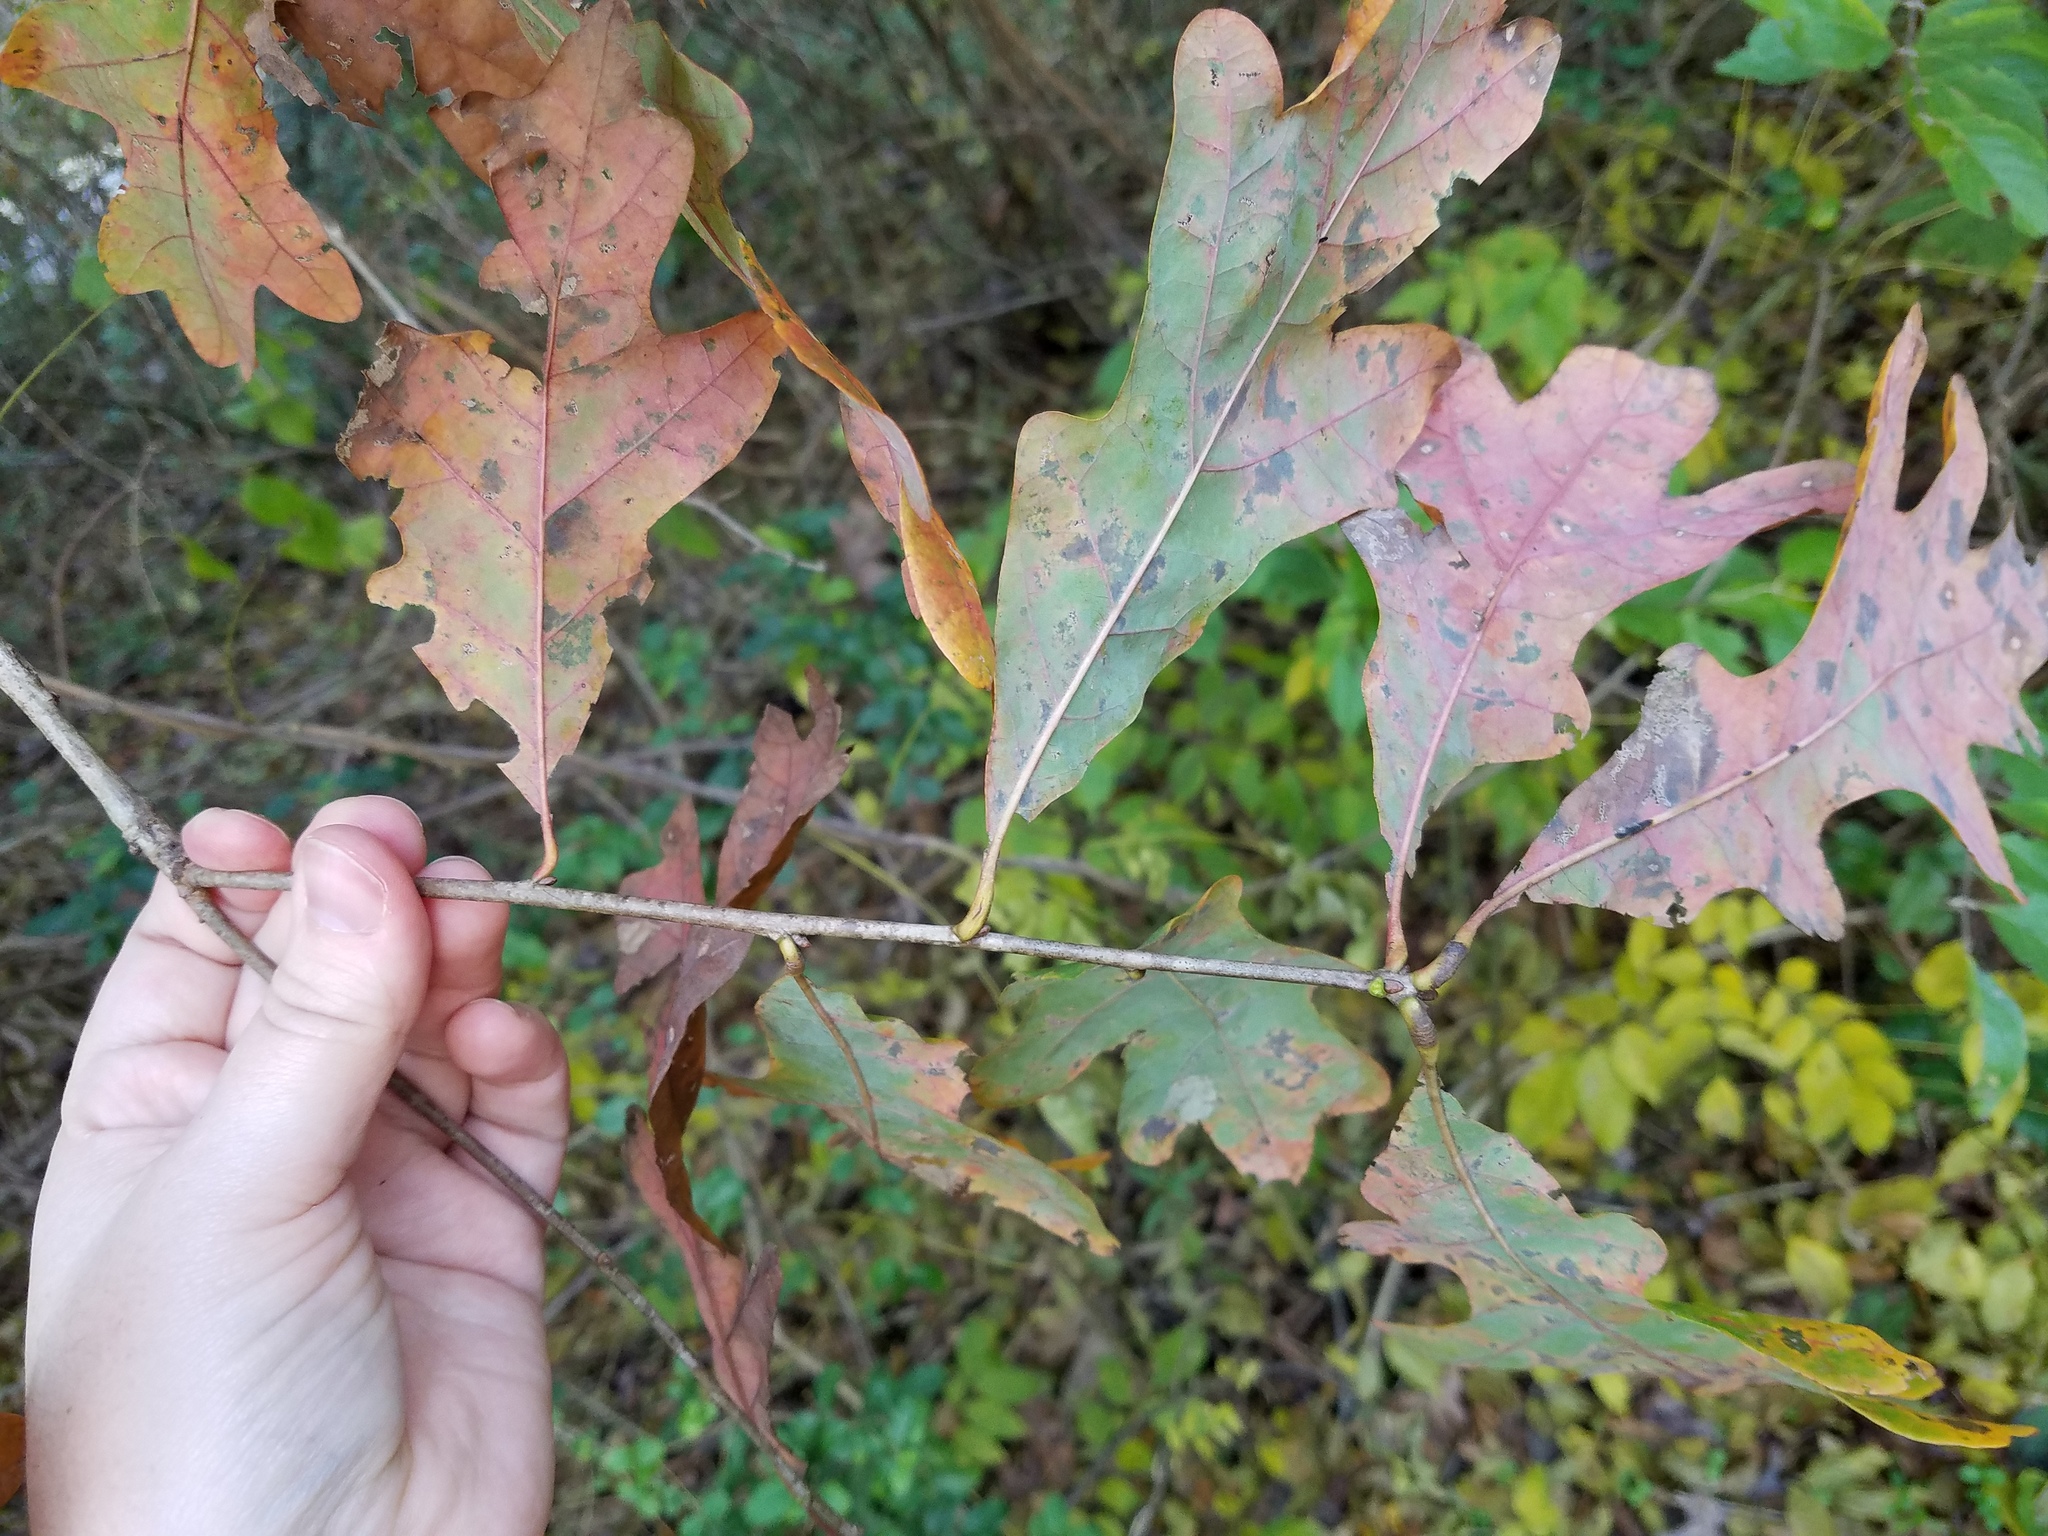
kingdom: Plantae
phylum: Tracheophyta
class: Magnoliopsida
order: Fagales
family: Fagaceae
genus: Quercus
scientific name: Quercus alba
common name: White oak
